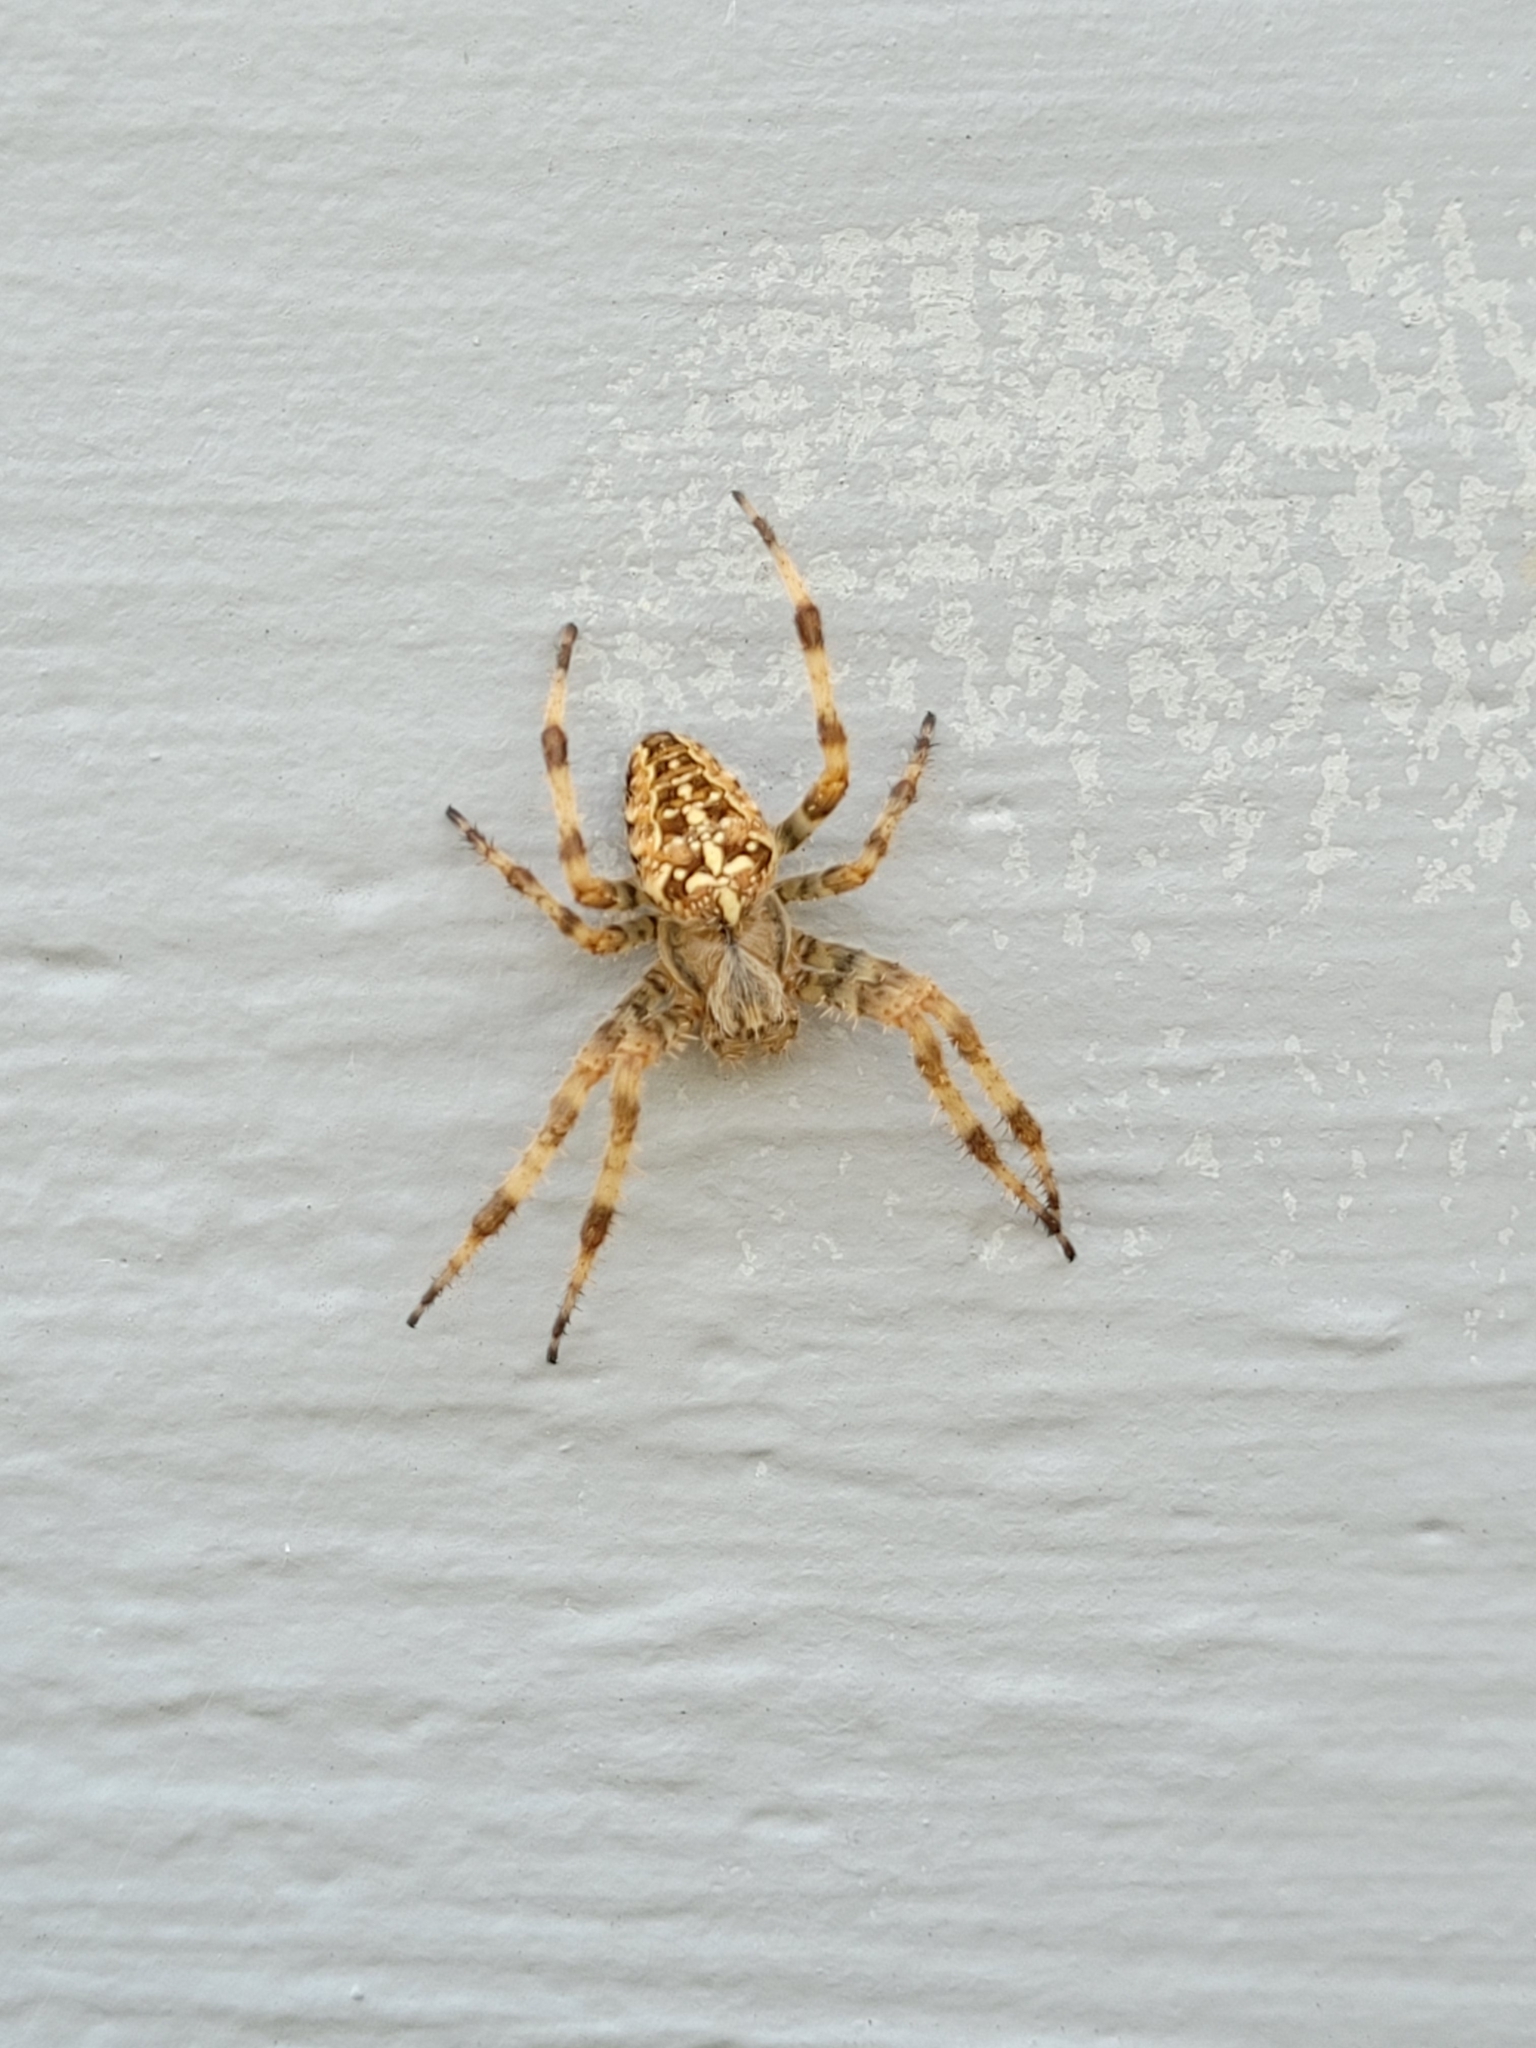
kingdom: Animalia
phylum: Arthropoda
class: Arachnida
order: Araneae
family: Araneidae
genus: Araneus
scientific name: Araneus diadematus
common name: Cross orbweaver
